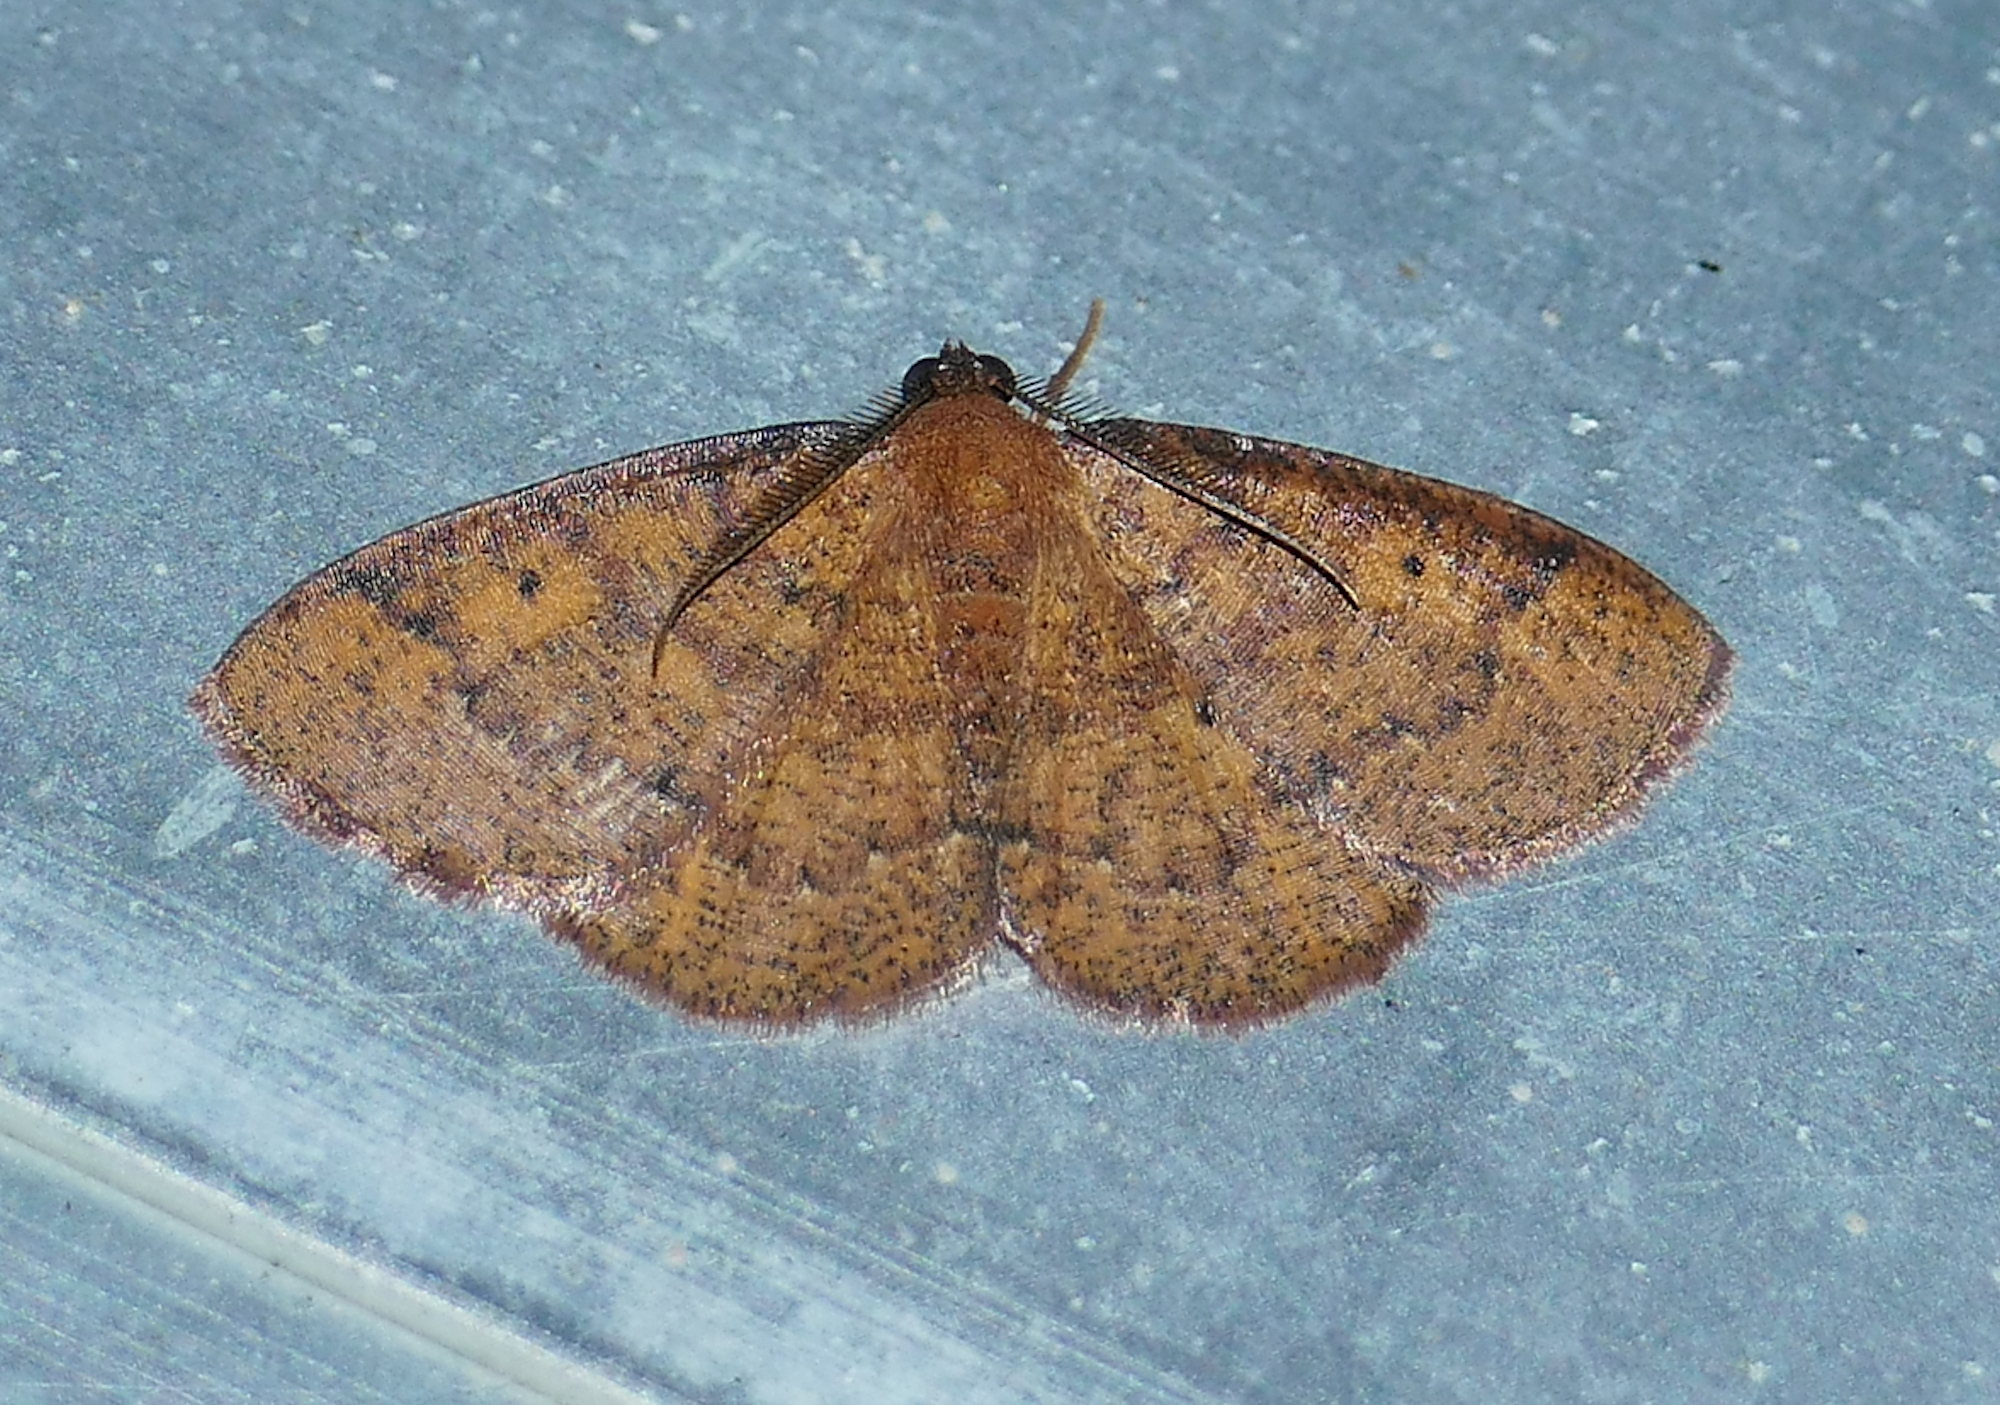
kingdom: Animalia
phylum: Arthropoda
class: Insecta
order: Lepidoptera
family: Geometridae
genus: Ilexia
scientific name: Ilexia intractata
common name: Black-dotted ruddy moth
